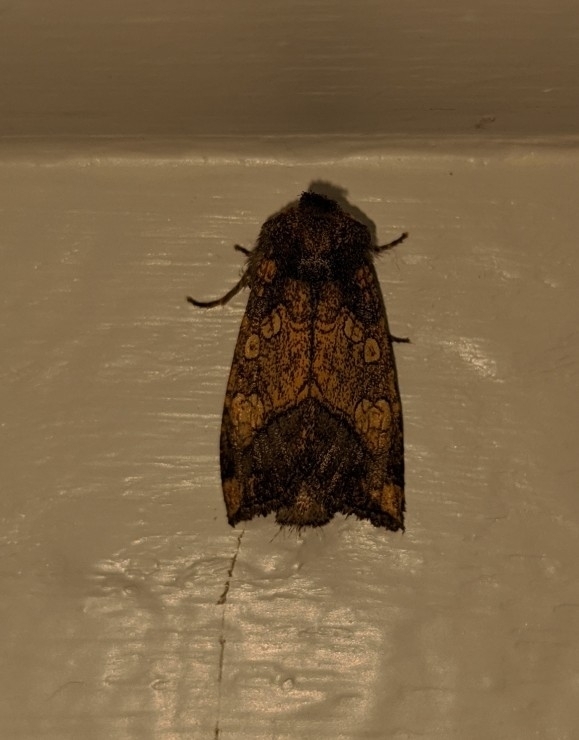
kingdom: Animalia
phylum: Arthropoda
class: Insecta
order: Lepidoptera
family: Noctuidae
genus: Papaipema
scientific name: Papaipema cataphracta
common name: Burdock borer
